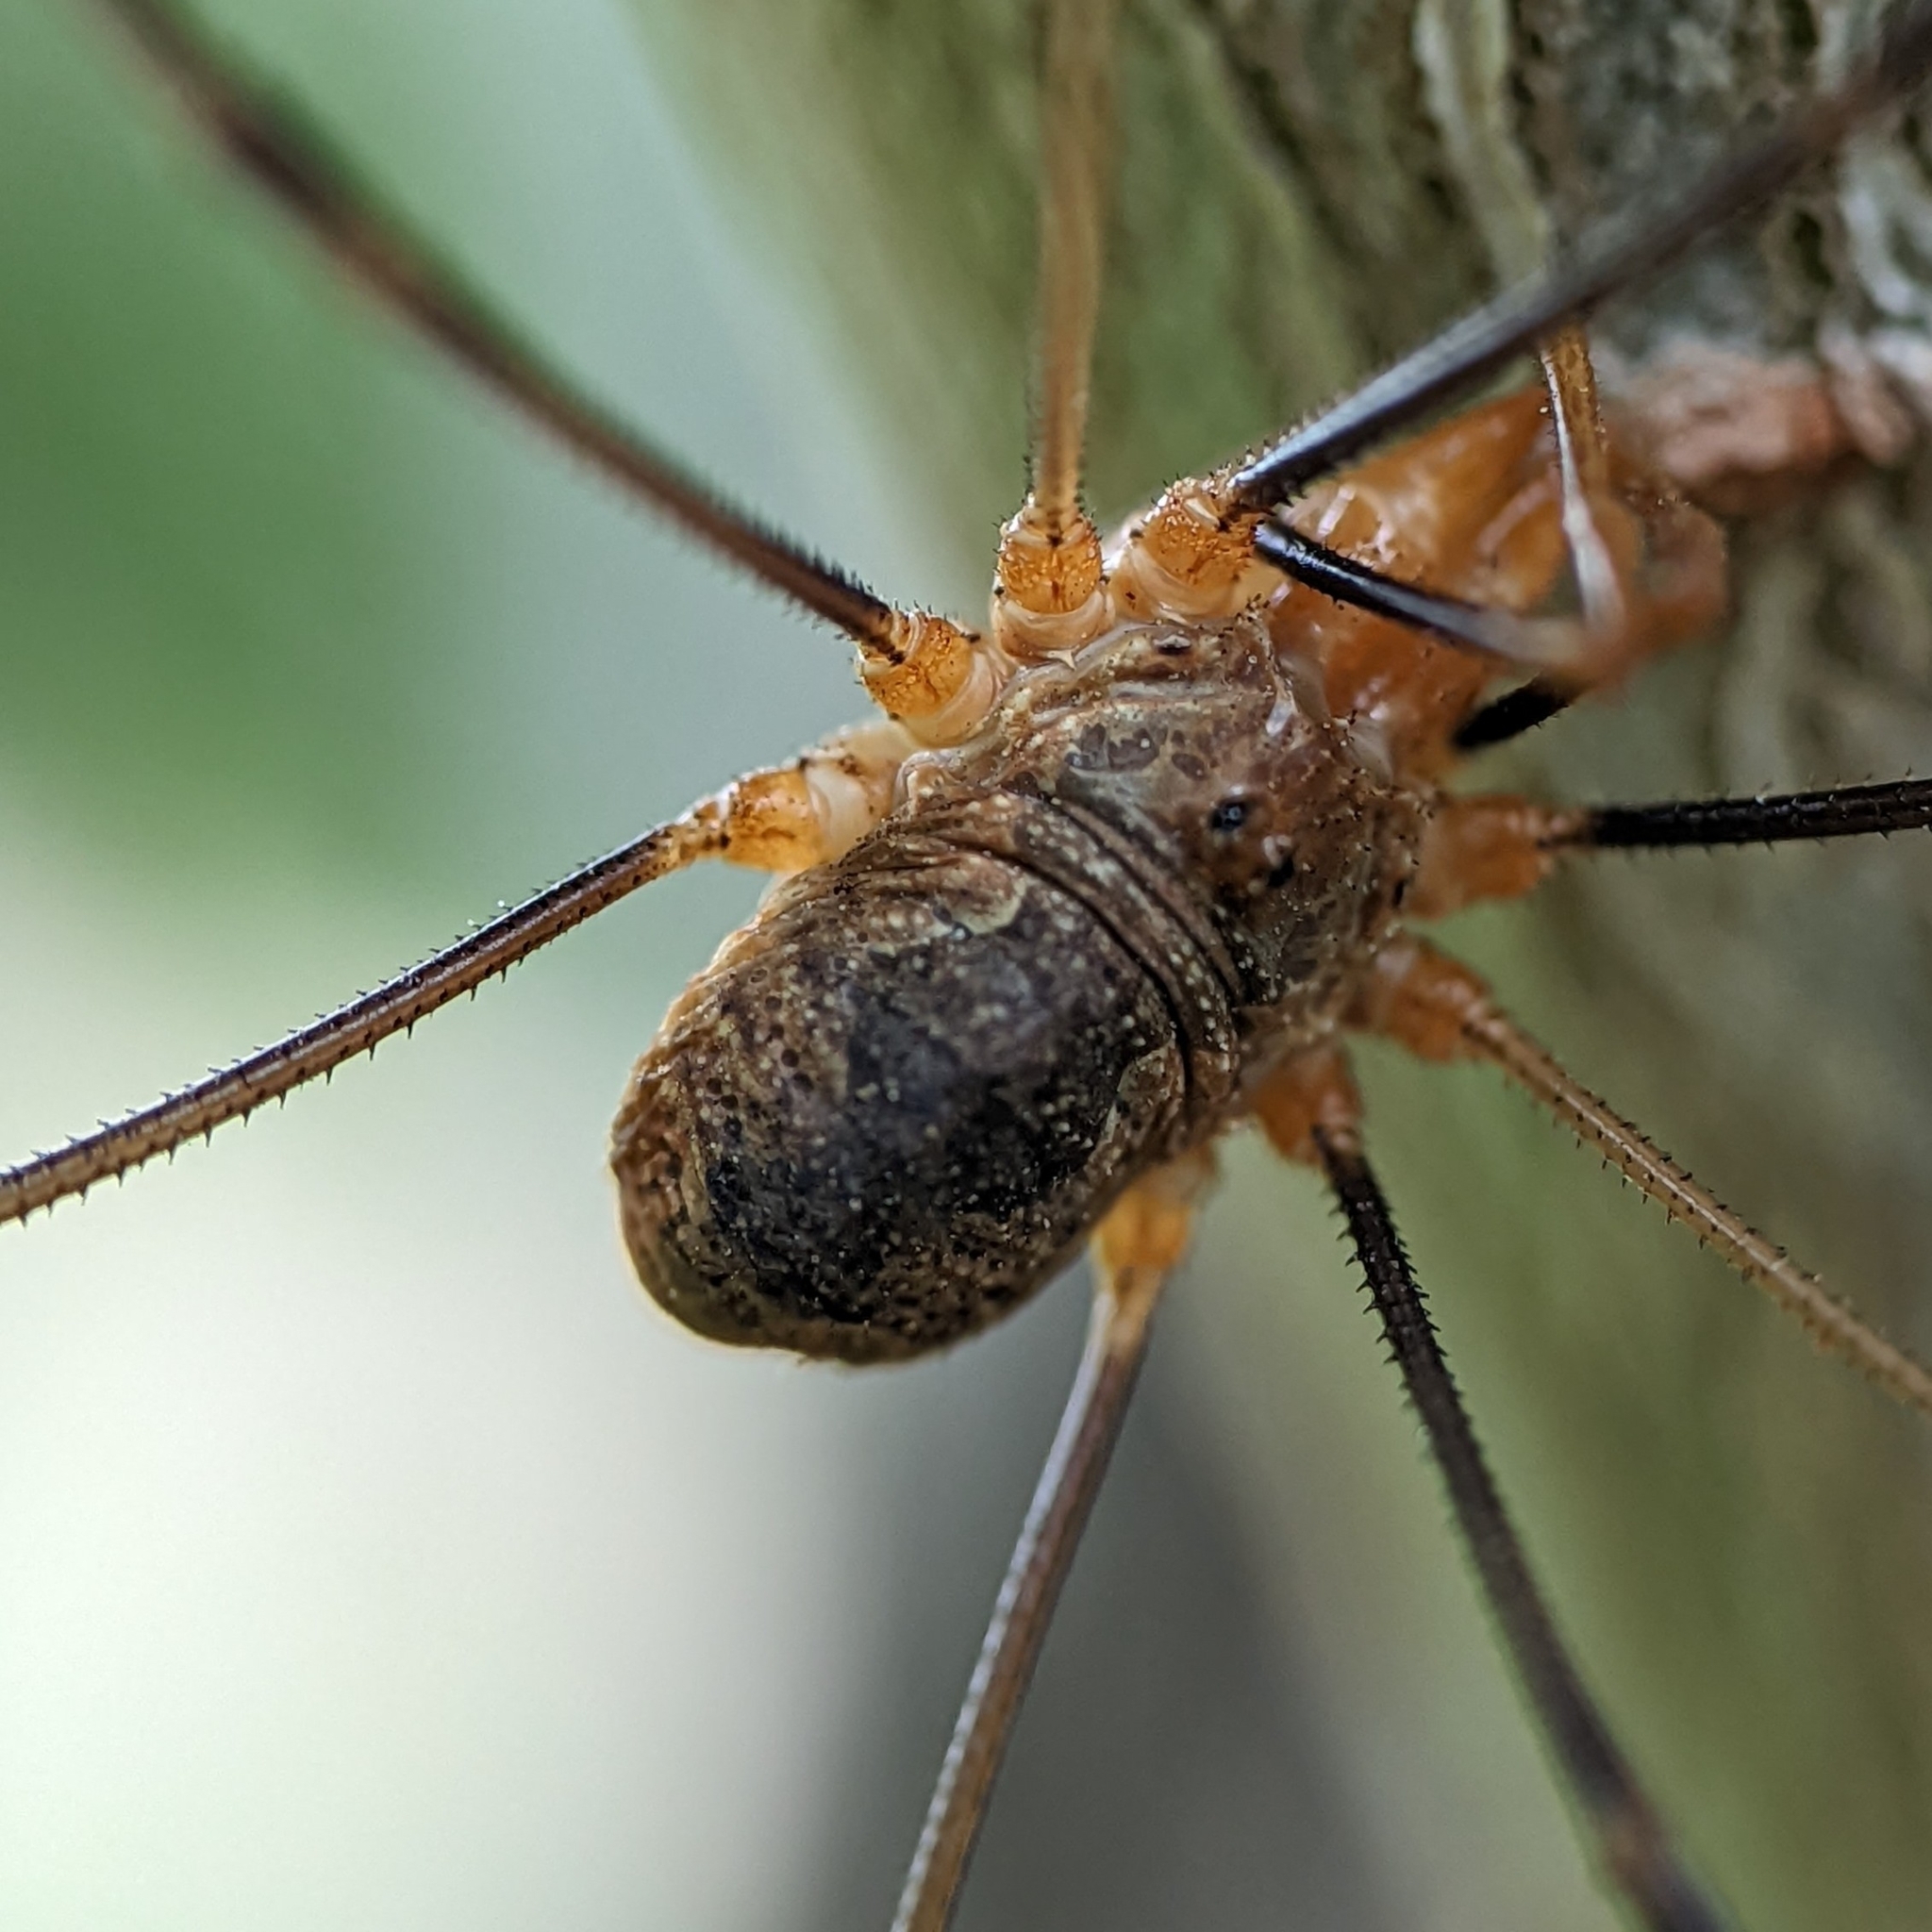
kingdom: Animalia
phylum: Arthropoda
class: Arachnida
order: Opiliones
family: Phalangiidae
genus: Phalangium
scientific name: Phalangium opilio
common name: Daddy longleg
